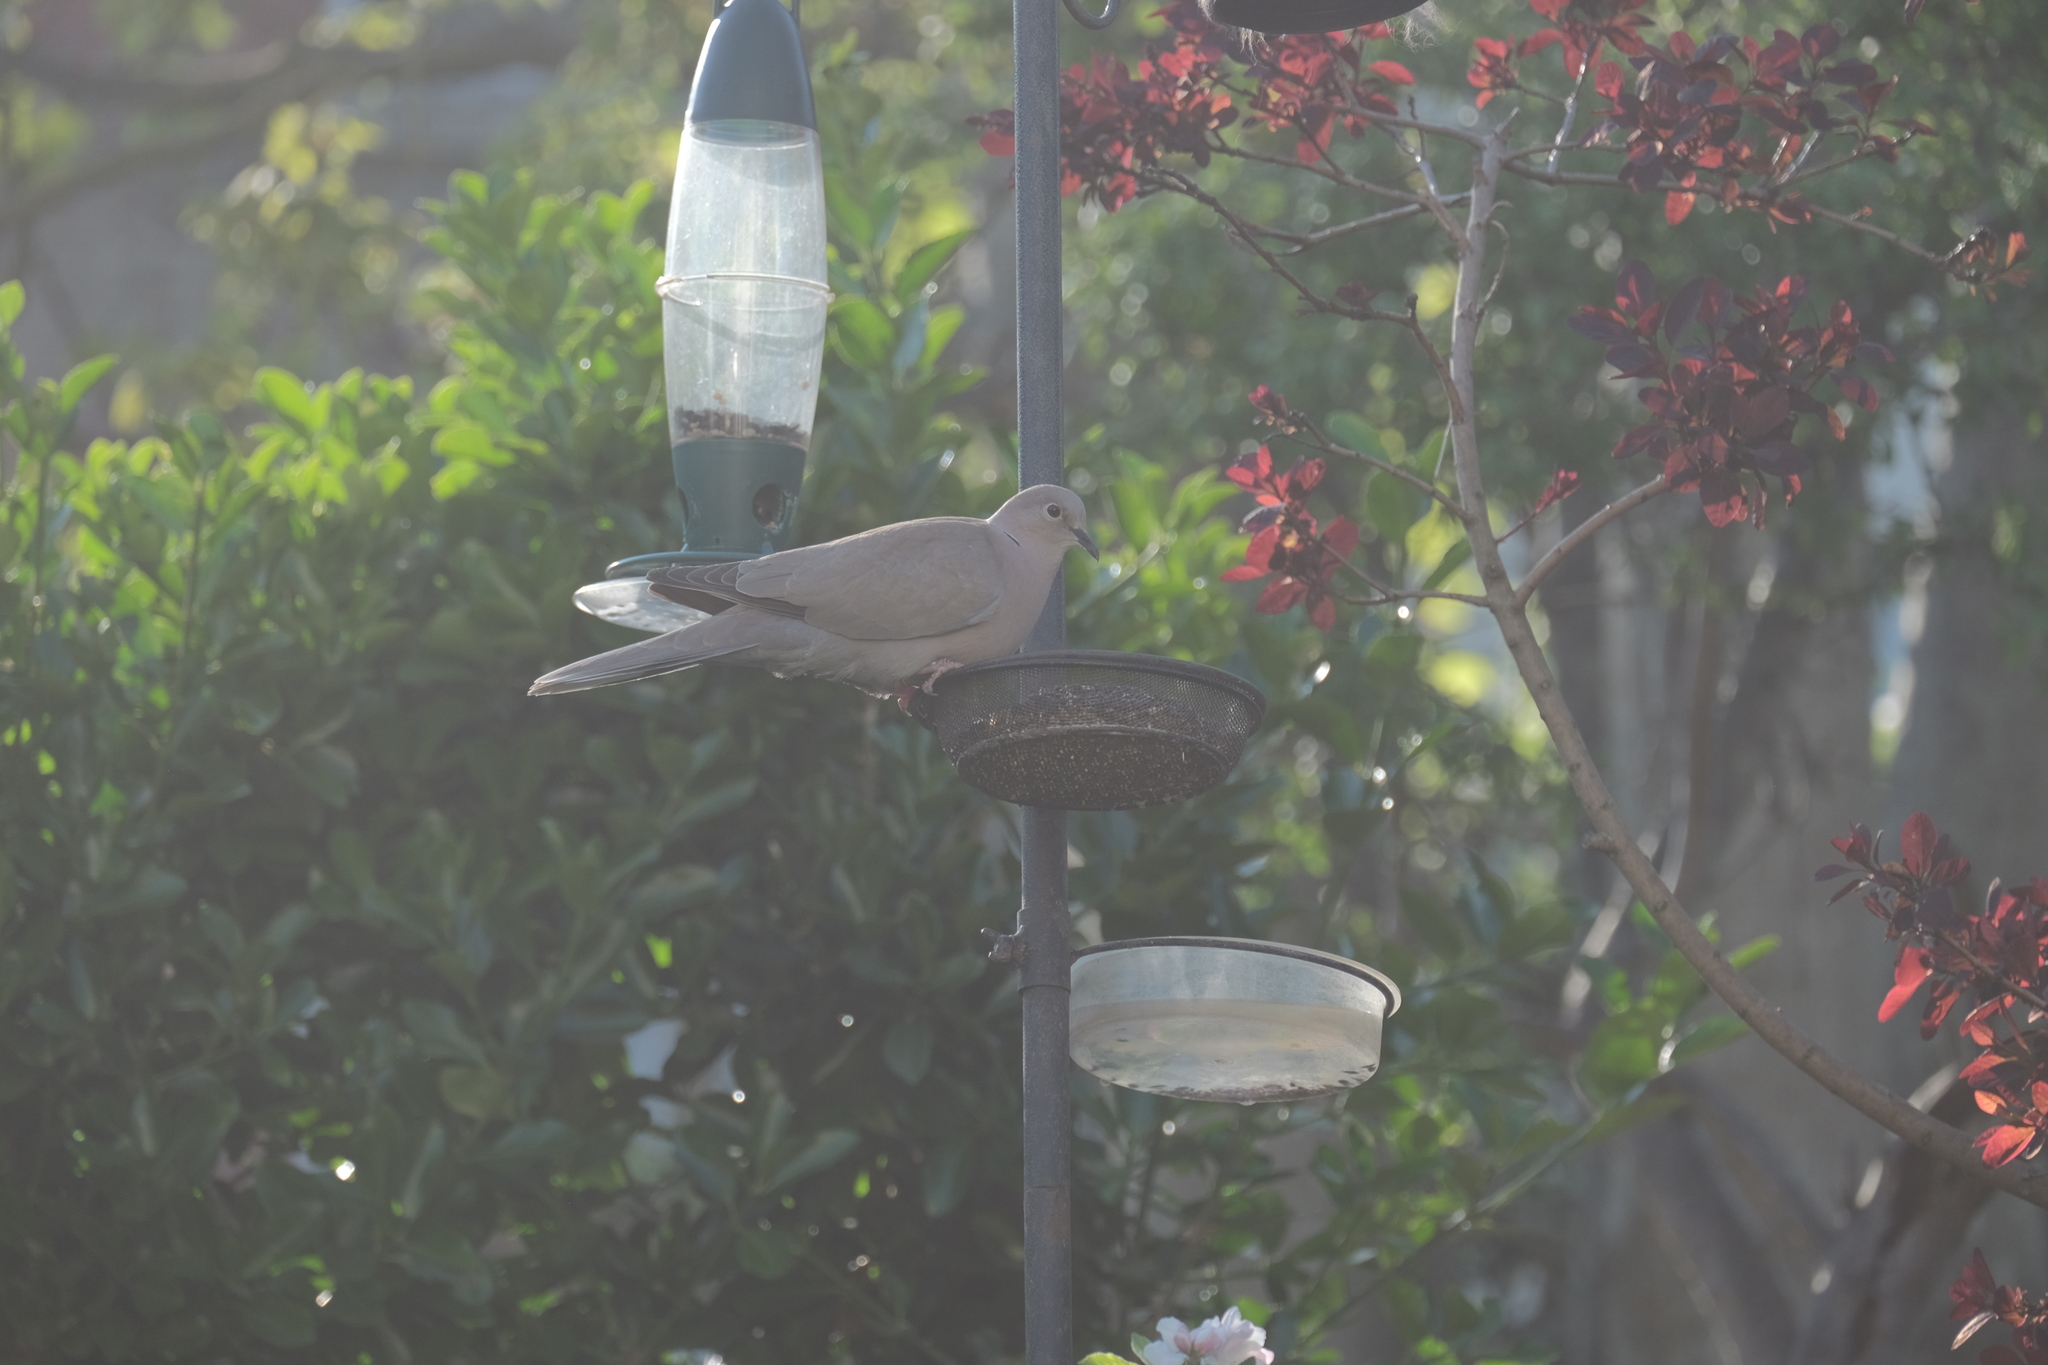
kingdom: Animalia
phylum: Chordata
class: Aves
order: Columbiformes
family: Columbidae
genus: Streptopelia
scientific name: Streptopelia decaocto
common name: Eurasian collared dove
